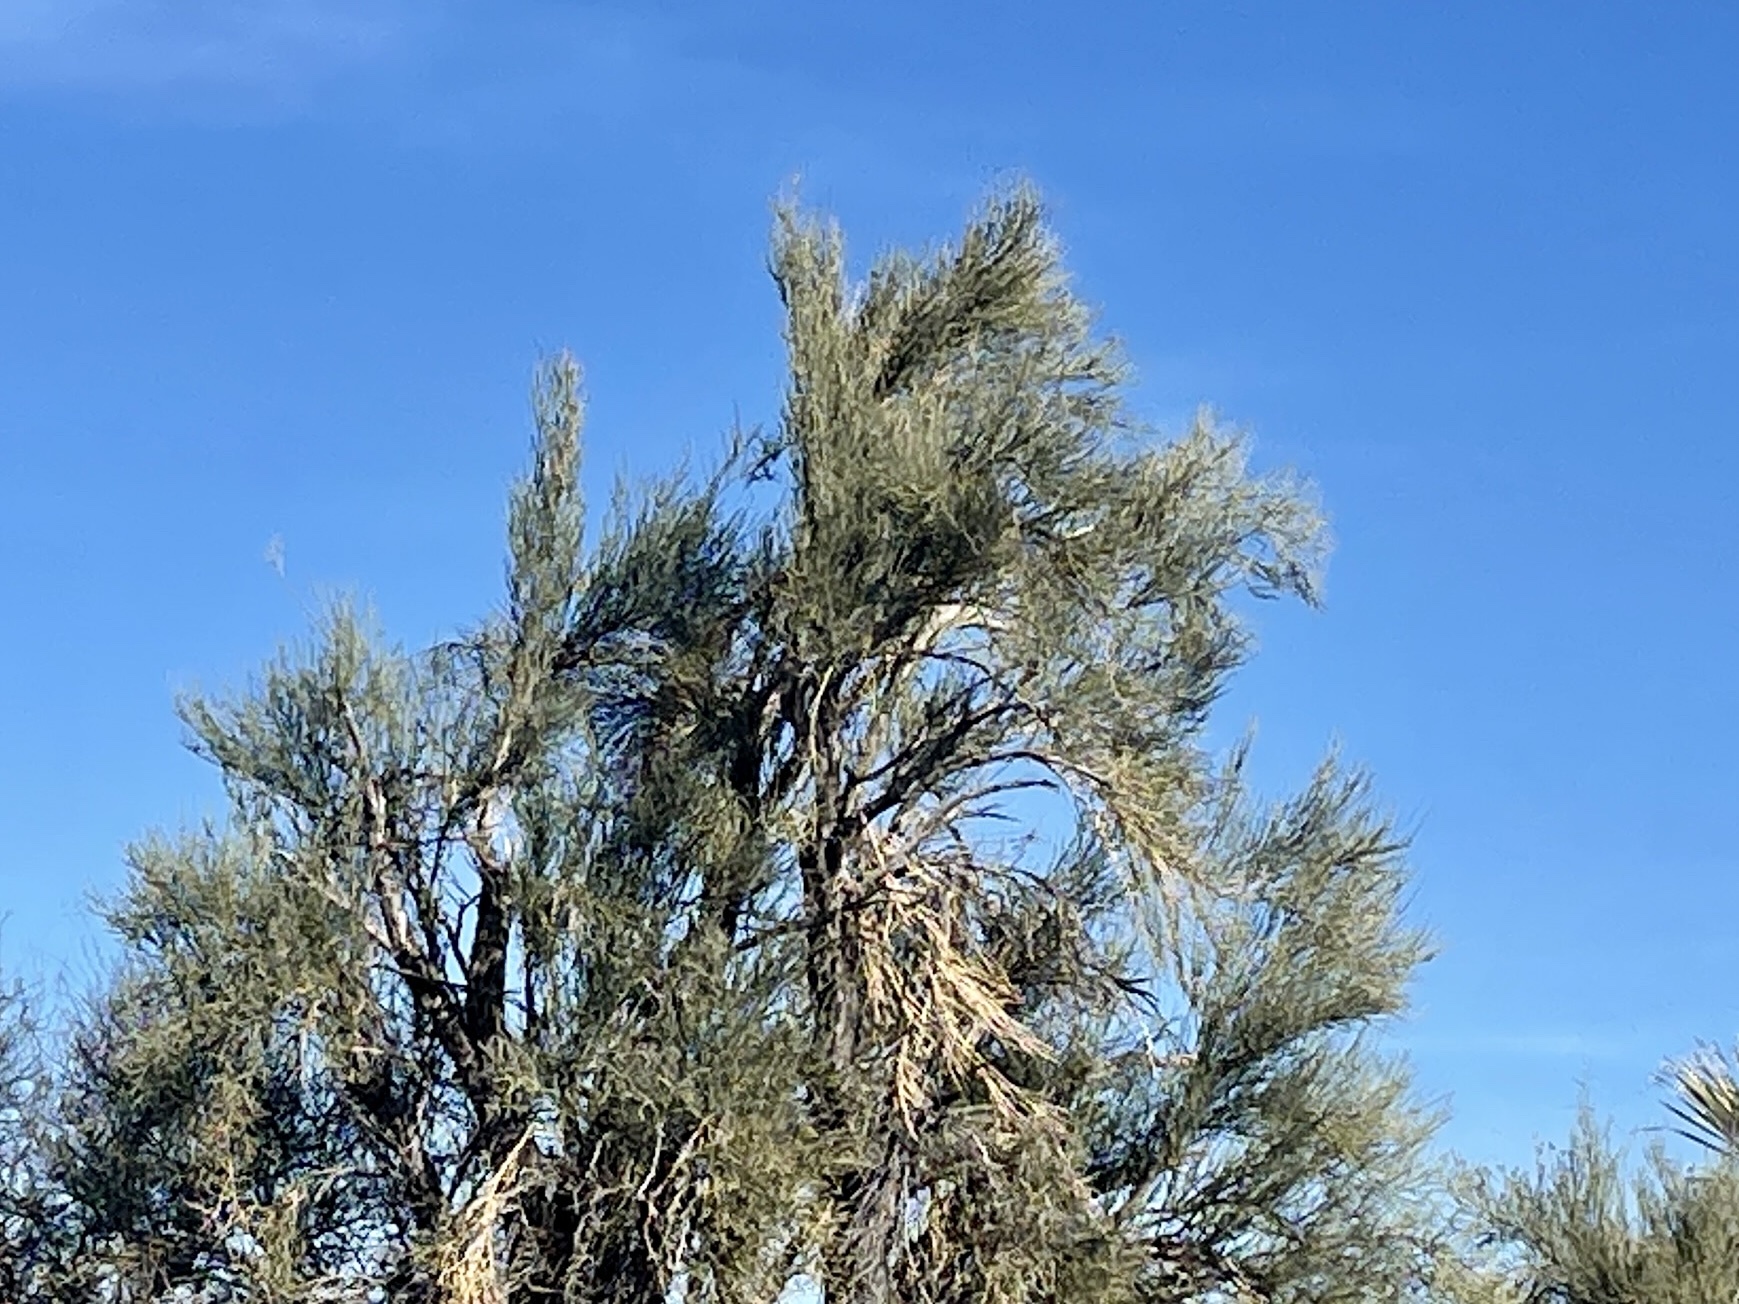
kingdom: Plantae
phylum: Tracheophyta
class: Magnoliopsida
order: Celastrales
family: Celastraceae
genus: Canotia
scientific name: Canotia holacantha
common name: Crucifixion thorns
